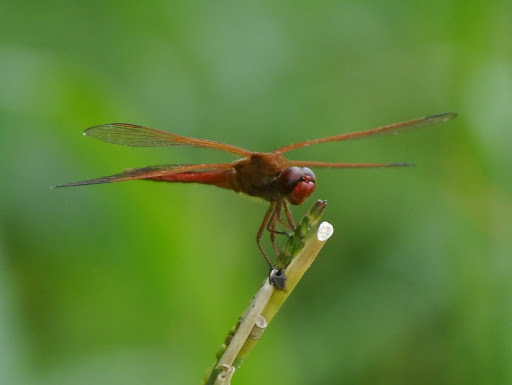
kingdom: Animalia
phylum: Arthropoda
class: Insecta
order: Odonata
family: Libellulidae
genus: Libellula
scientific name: Libellula needhami
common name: Needham's skimmer
